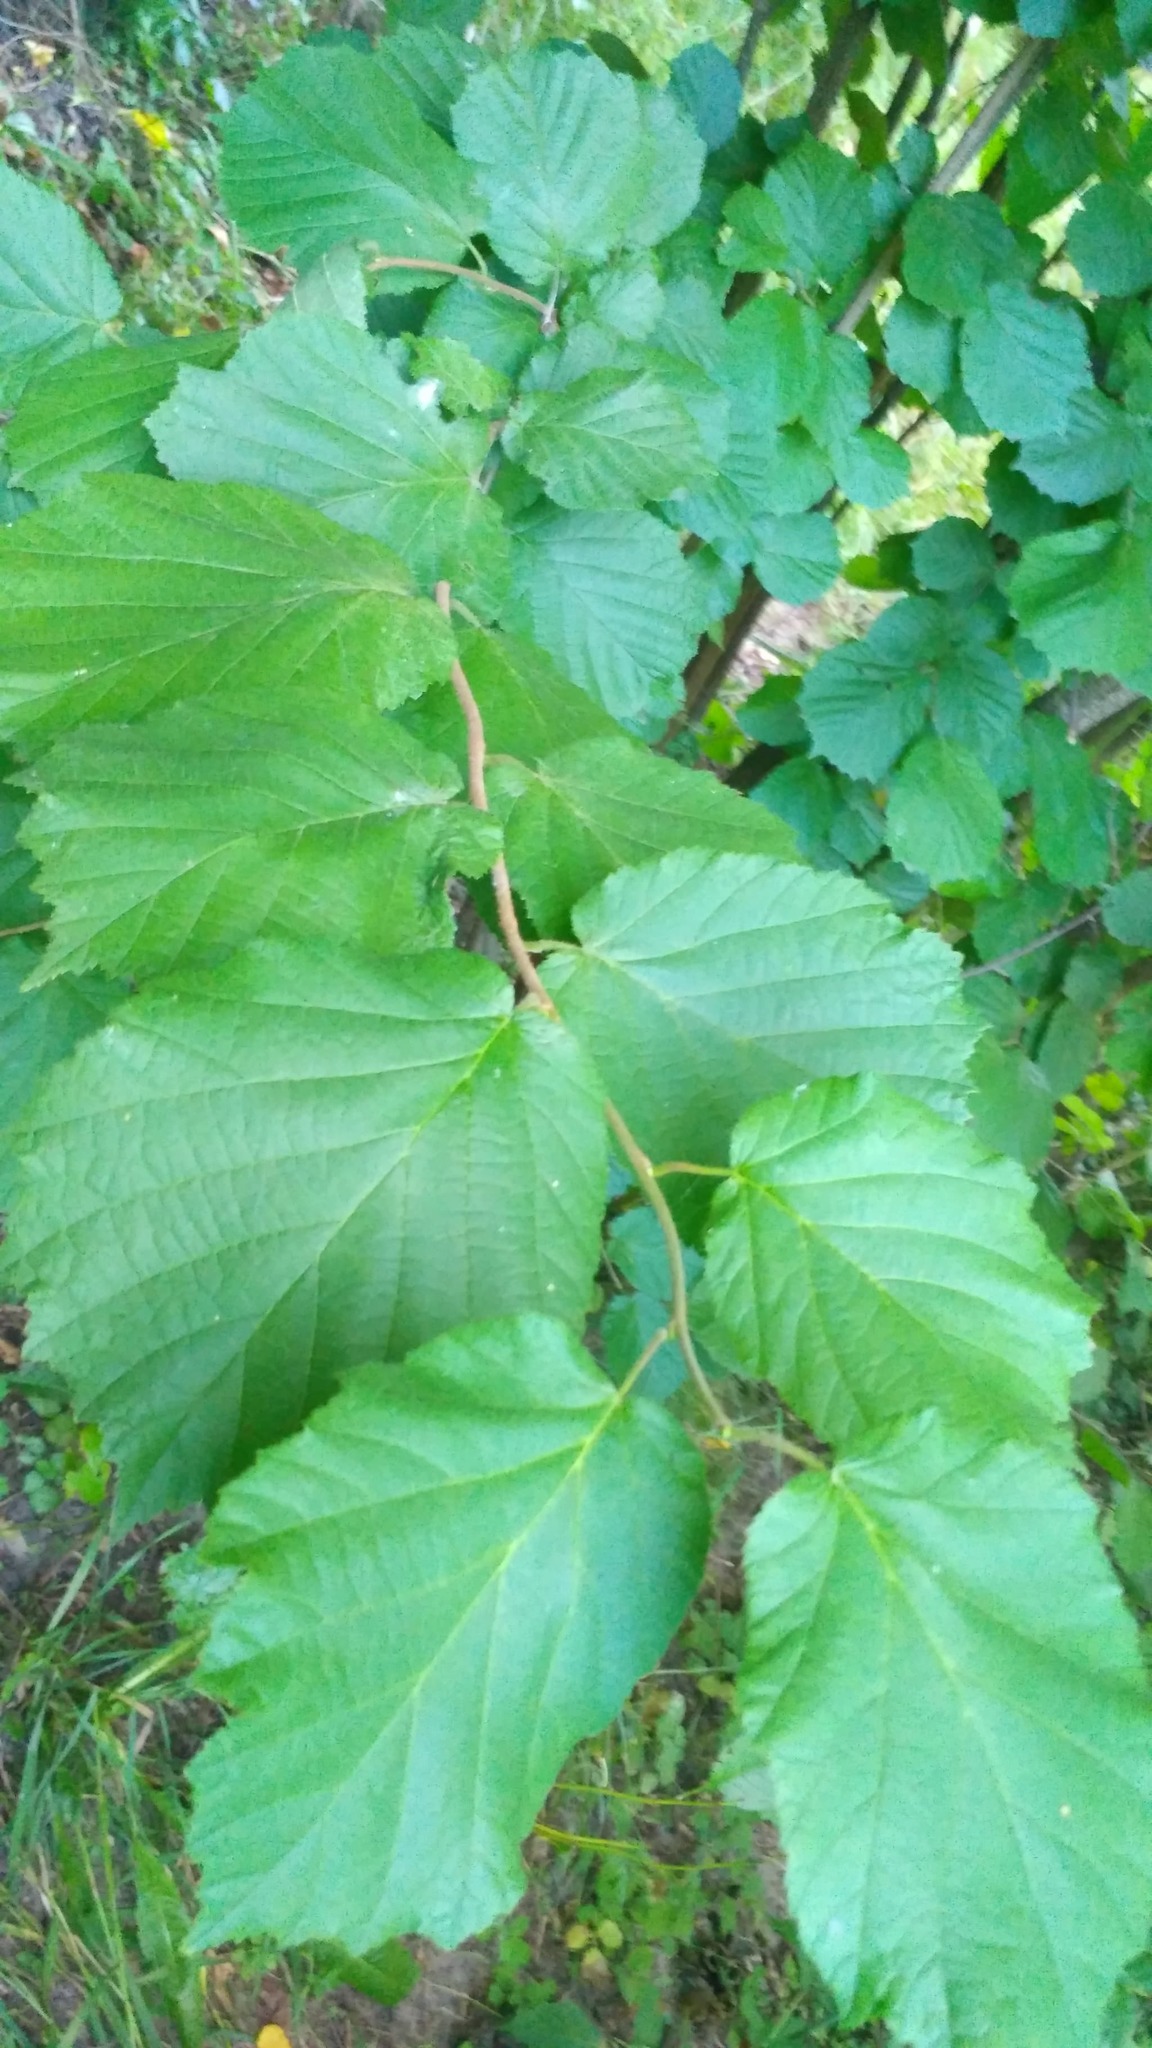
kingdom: Plantae
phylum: Tracheophyta
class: Magnoliopsida
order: Fagales
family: Betulaceae
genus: Corylus
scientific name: Corylus avellana
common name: European hazel
